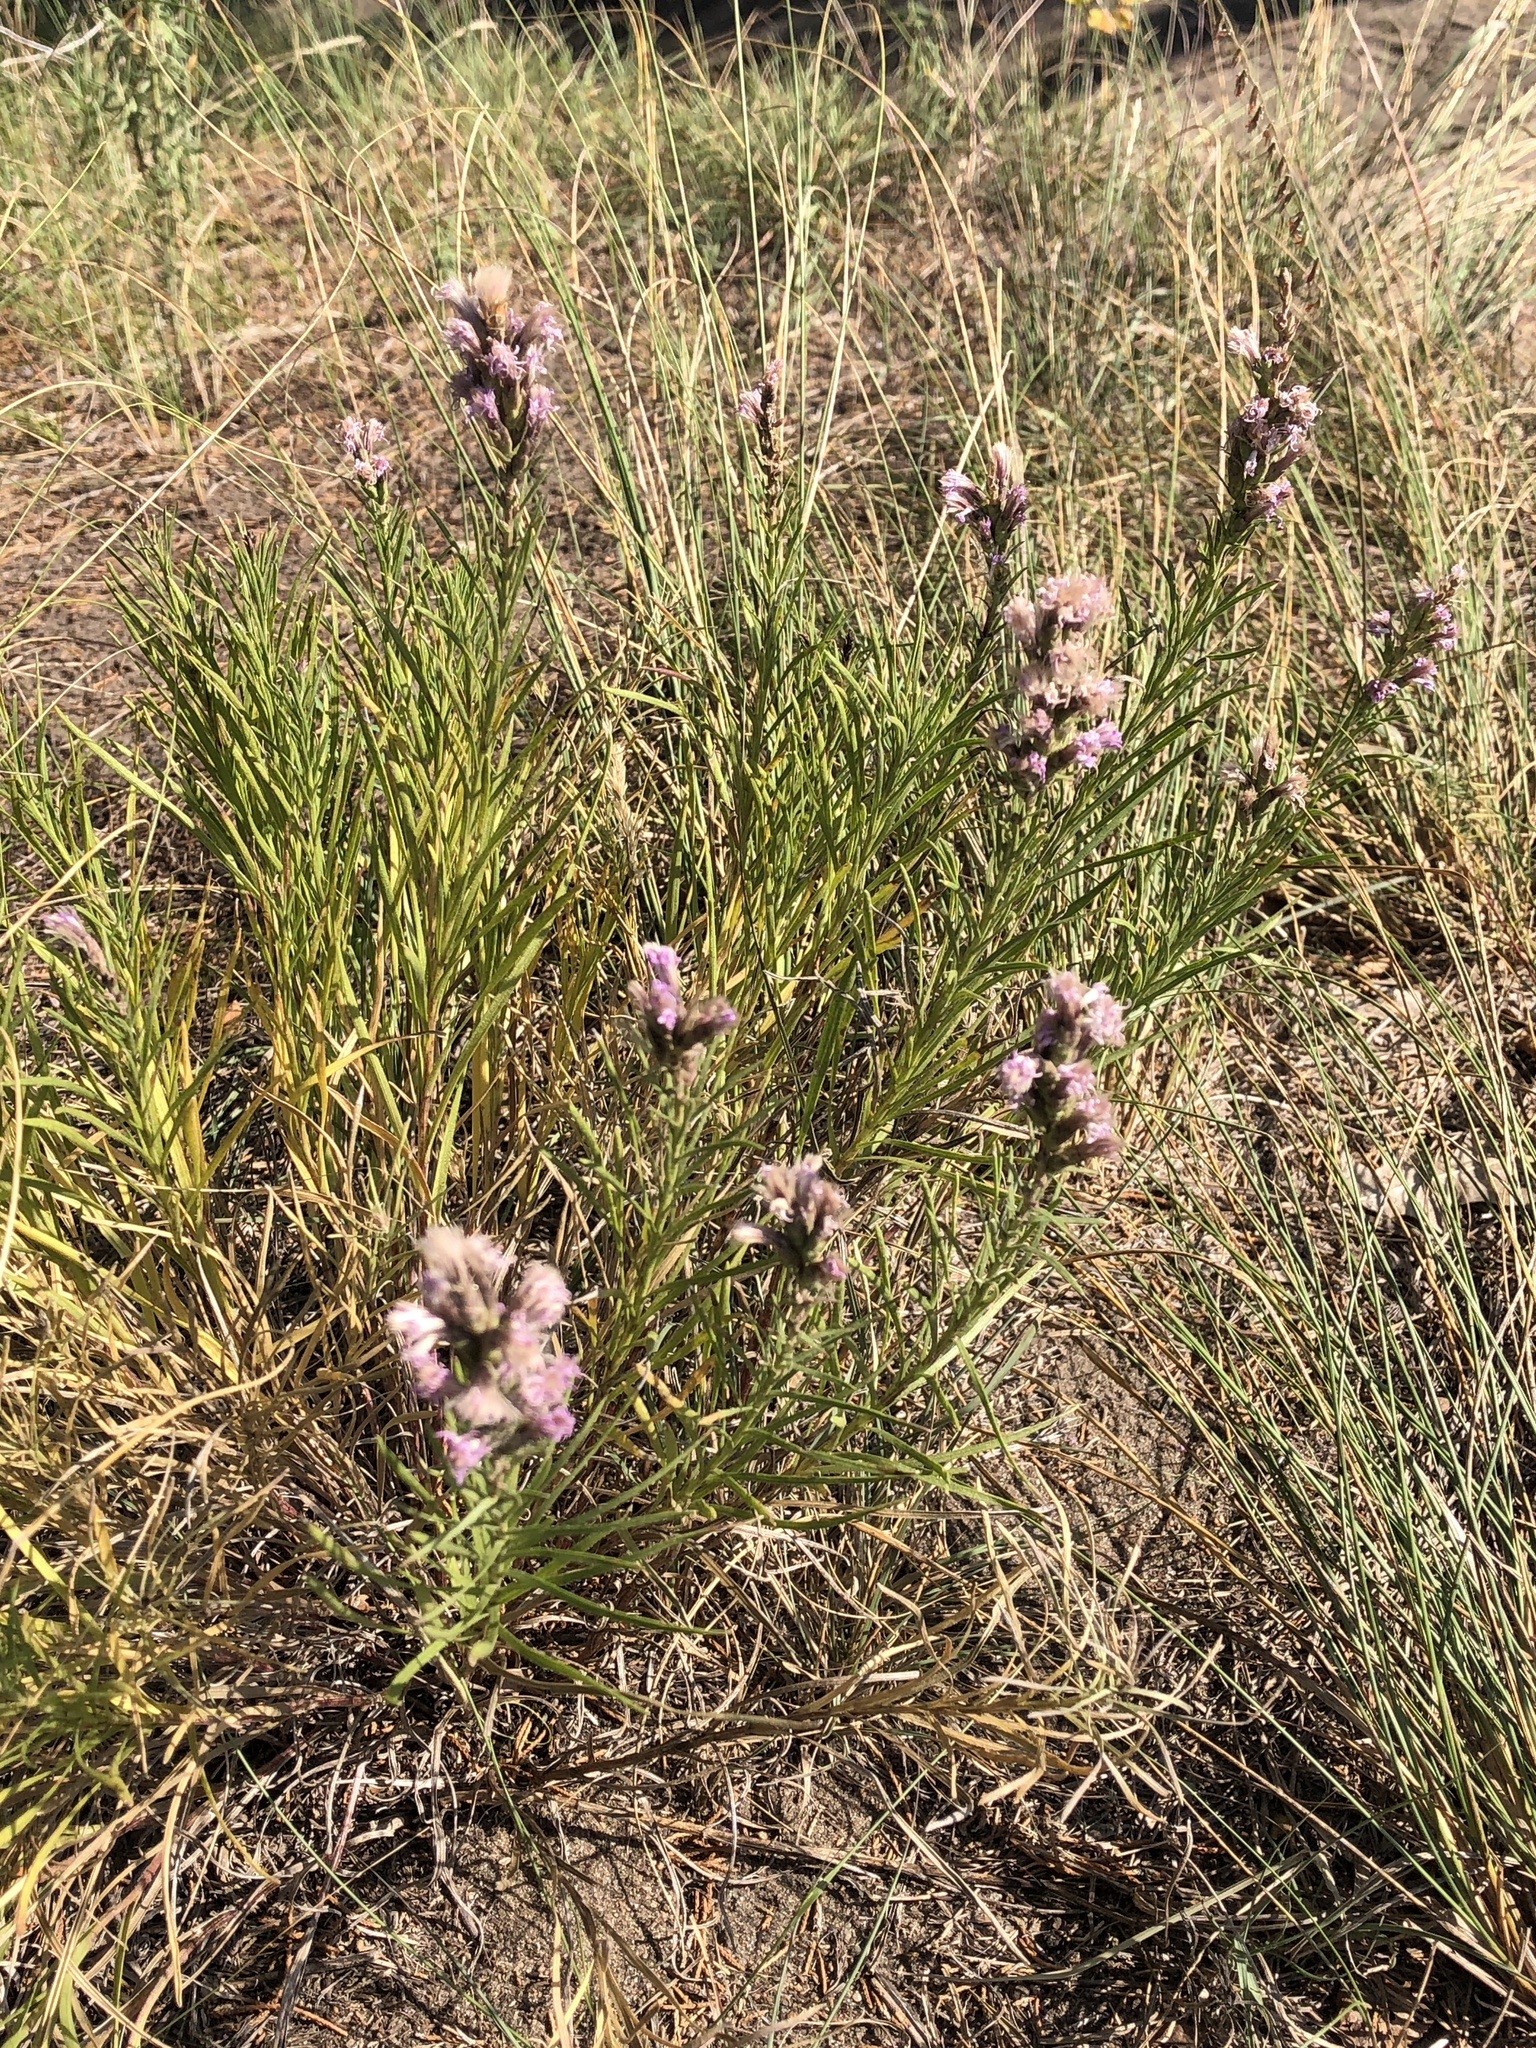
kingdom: Plantae
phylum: Tracheophyta
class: Magnoliopsida
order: Asterales
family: Asteraceae
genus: Liatris
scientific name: Liatris punctata
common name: Dotted gayfeather
